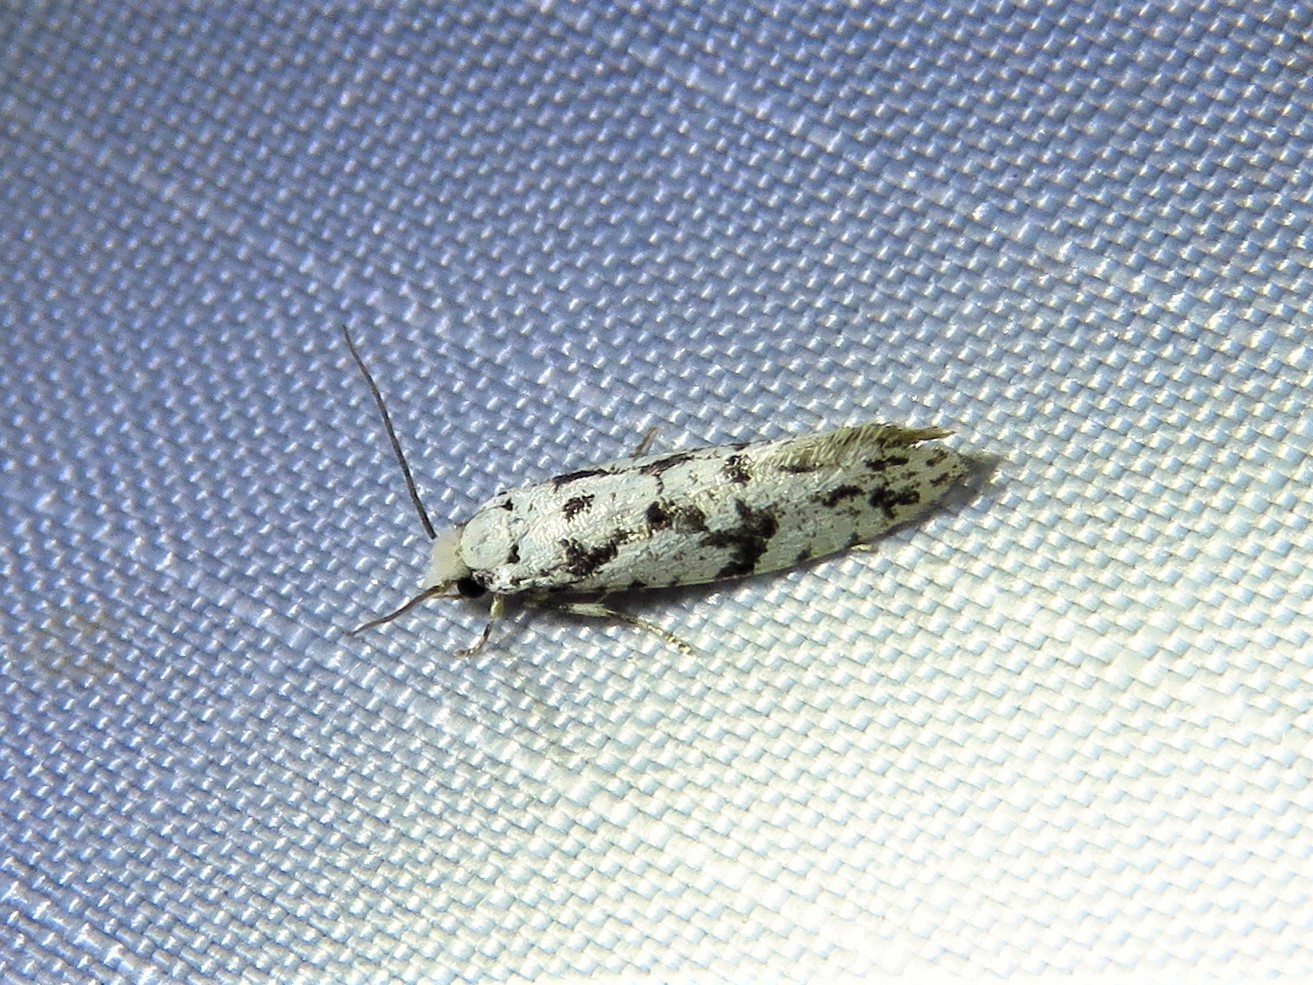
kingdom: Animalia
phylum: Arthropoda
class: Insecta
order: Lepidoptera
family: Tineidae
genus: Nemapogon
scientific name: Nemapogon defectella
